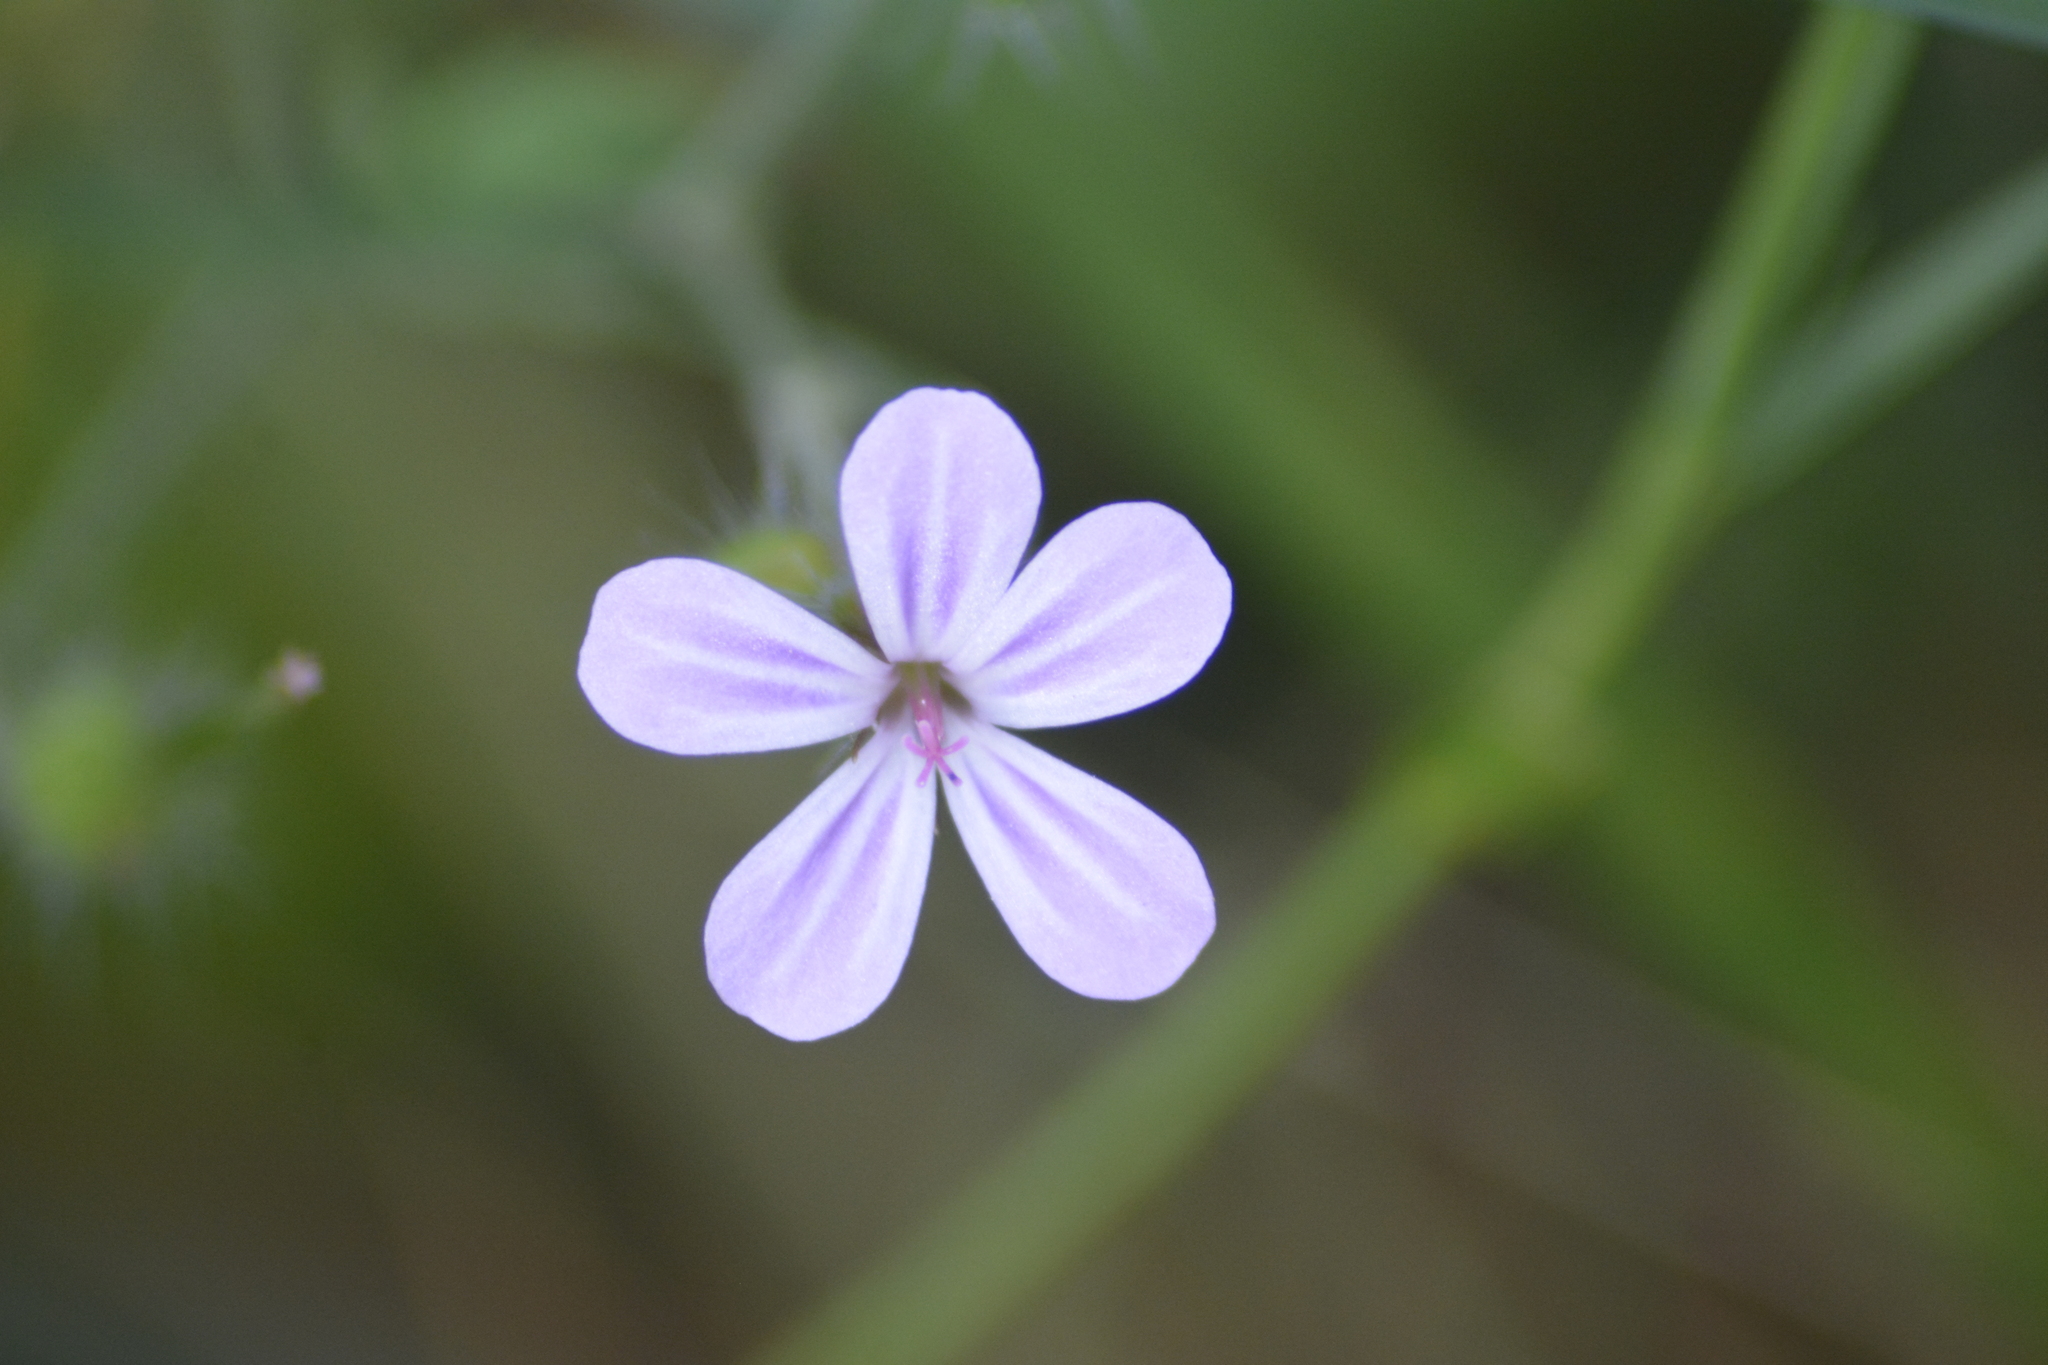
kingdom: Plantae
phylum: Tracheophyta
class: Magnoliopsida
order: Geraniales
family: Geraniaceae
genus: Geranium
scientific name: Geranium robertianum
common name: Herb-robert
